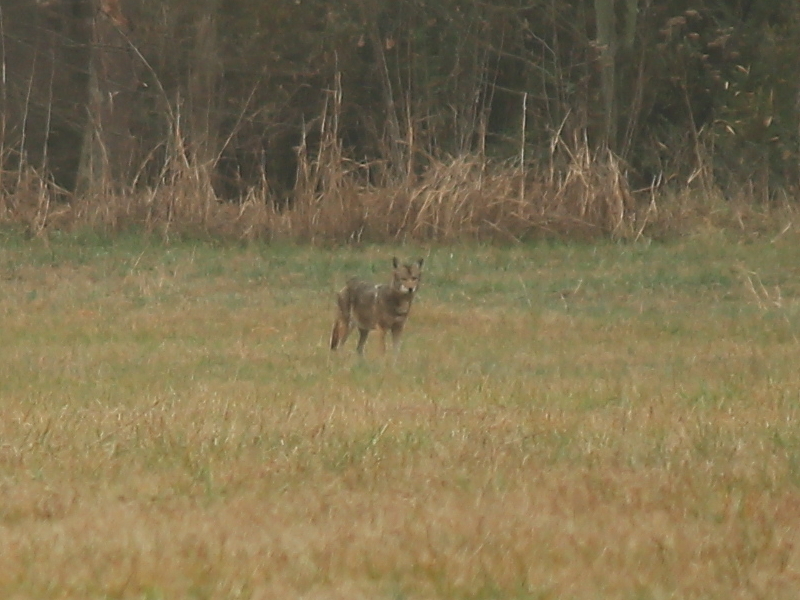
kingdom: Animalia
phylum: Chordata
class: Mammalia
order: Carnivora
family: Canidae
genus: Canis
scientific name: Canis latrans
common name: Coyote
